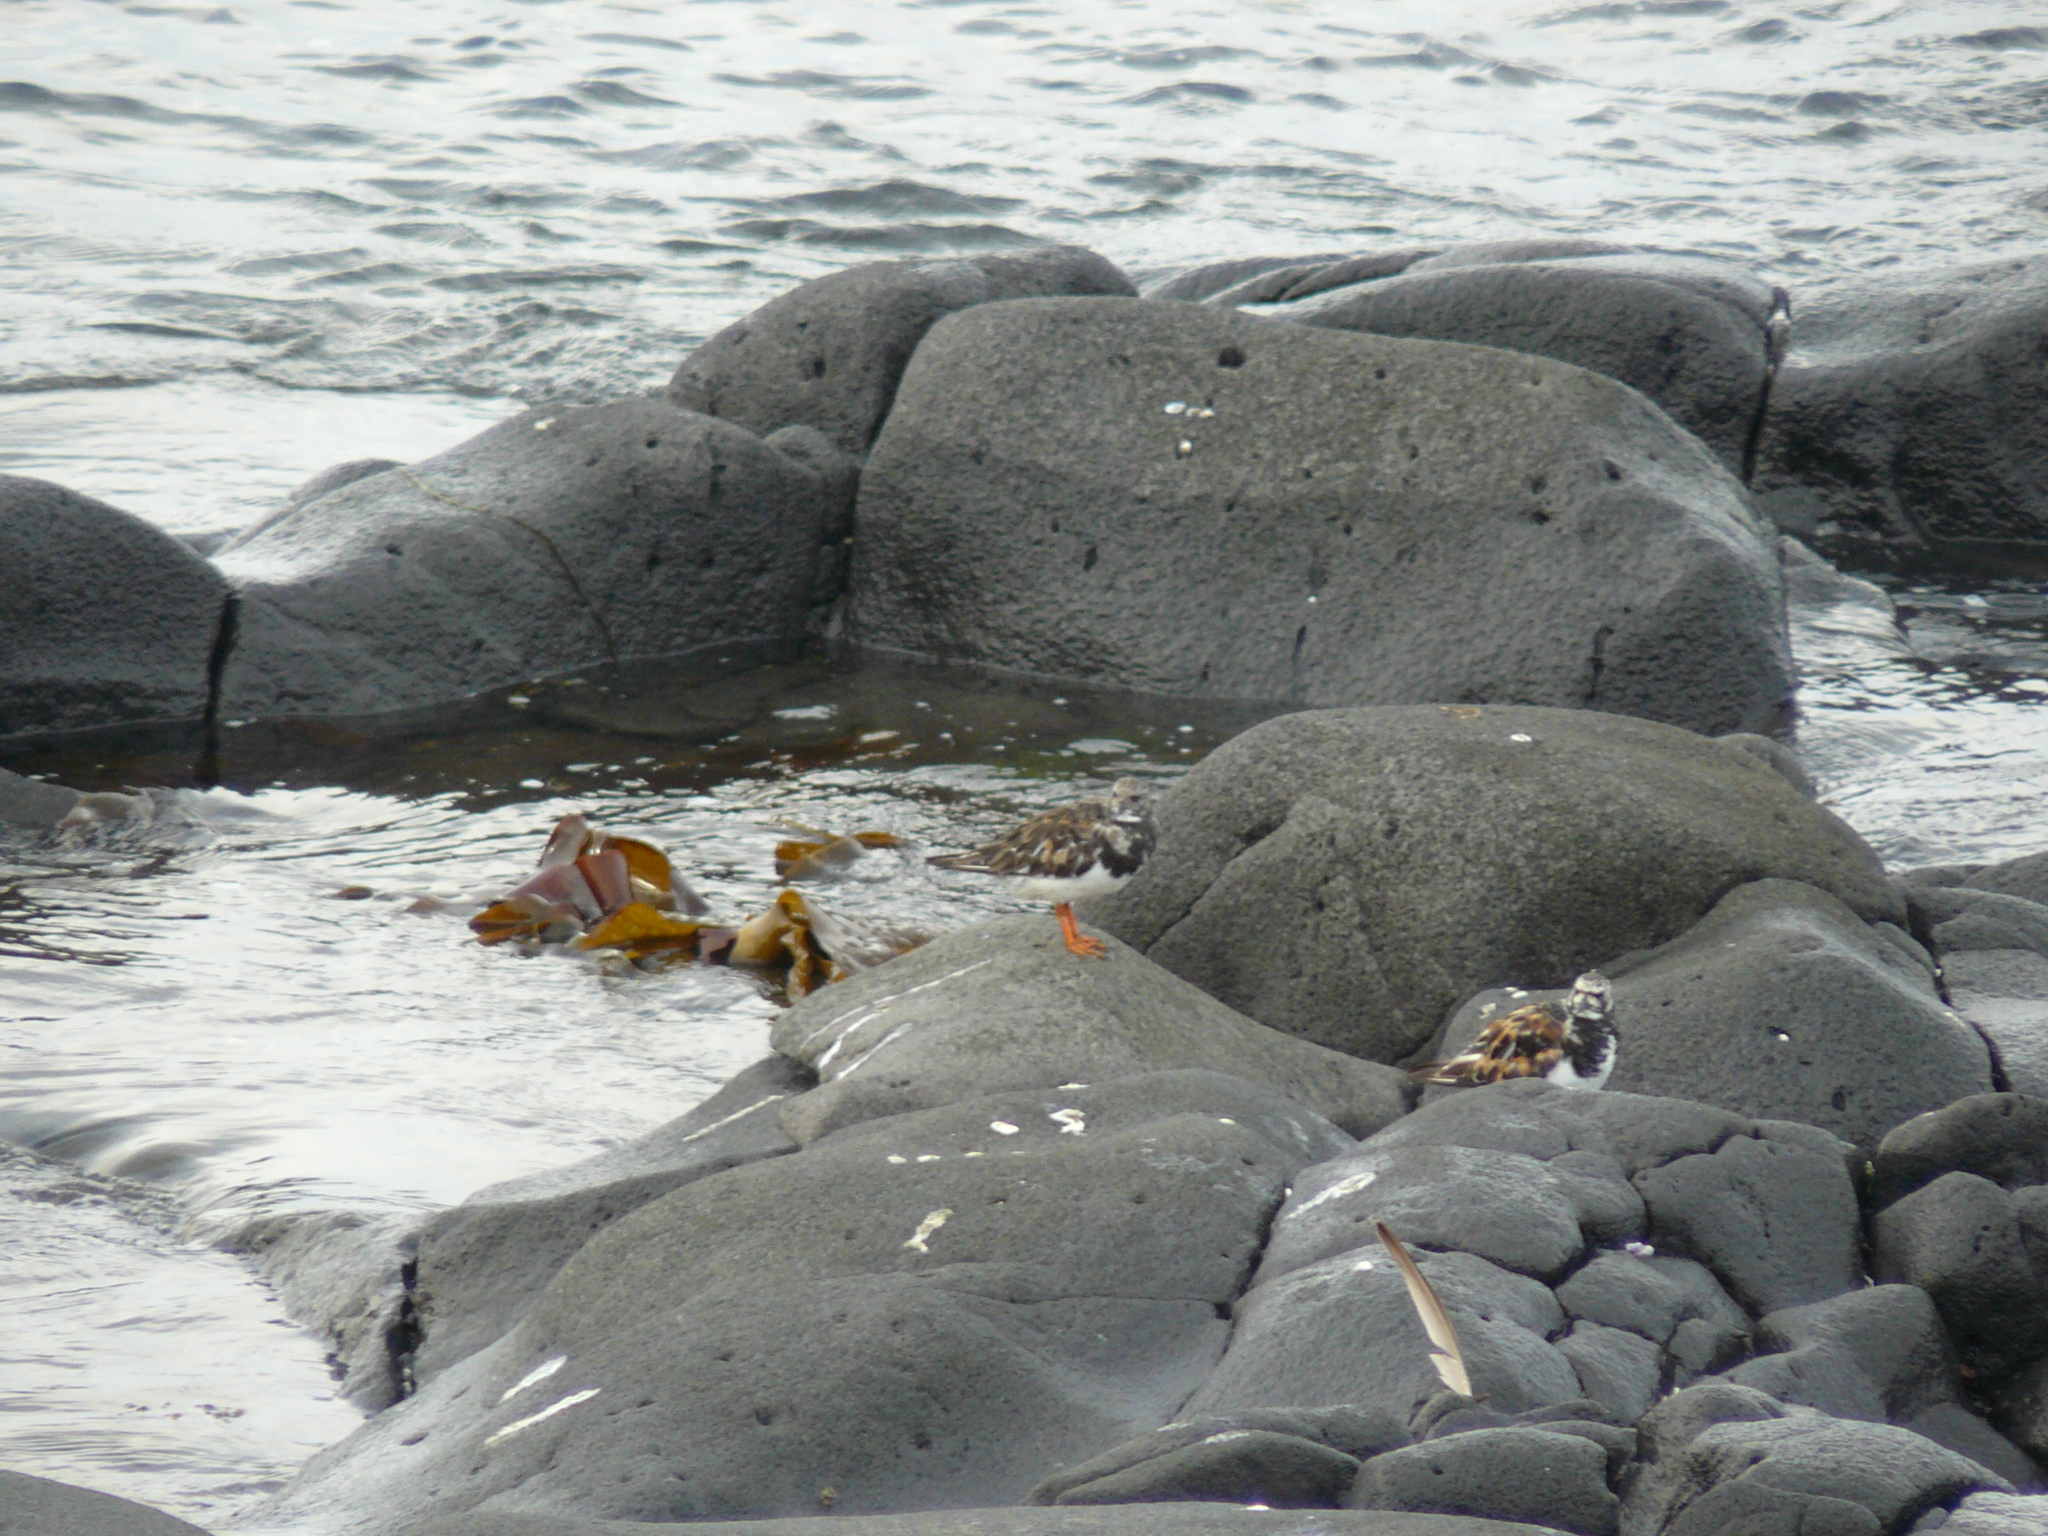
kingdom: Animalia
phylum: Chordata
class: Aves
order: Charadriiformes
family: Scolopacidae
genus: Arenaria
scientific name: Arenaria interpres
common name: Ruddy turnstone
